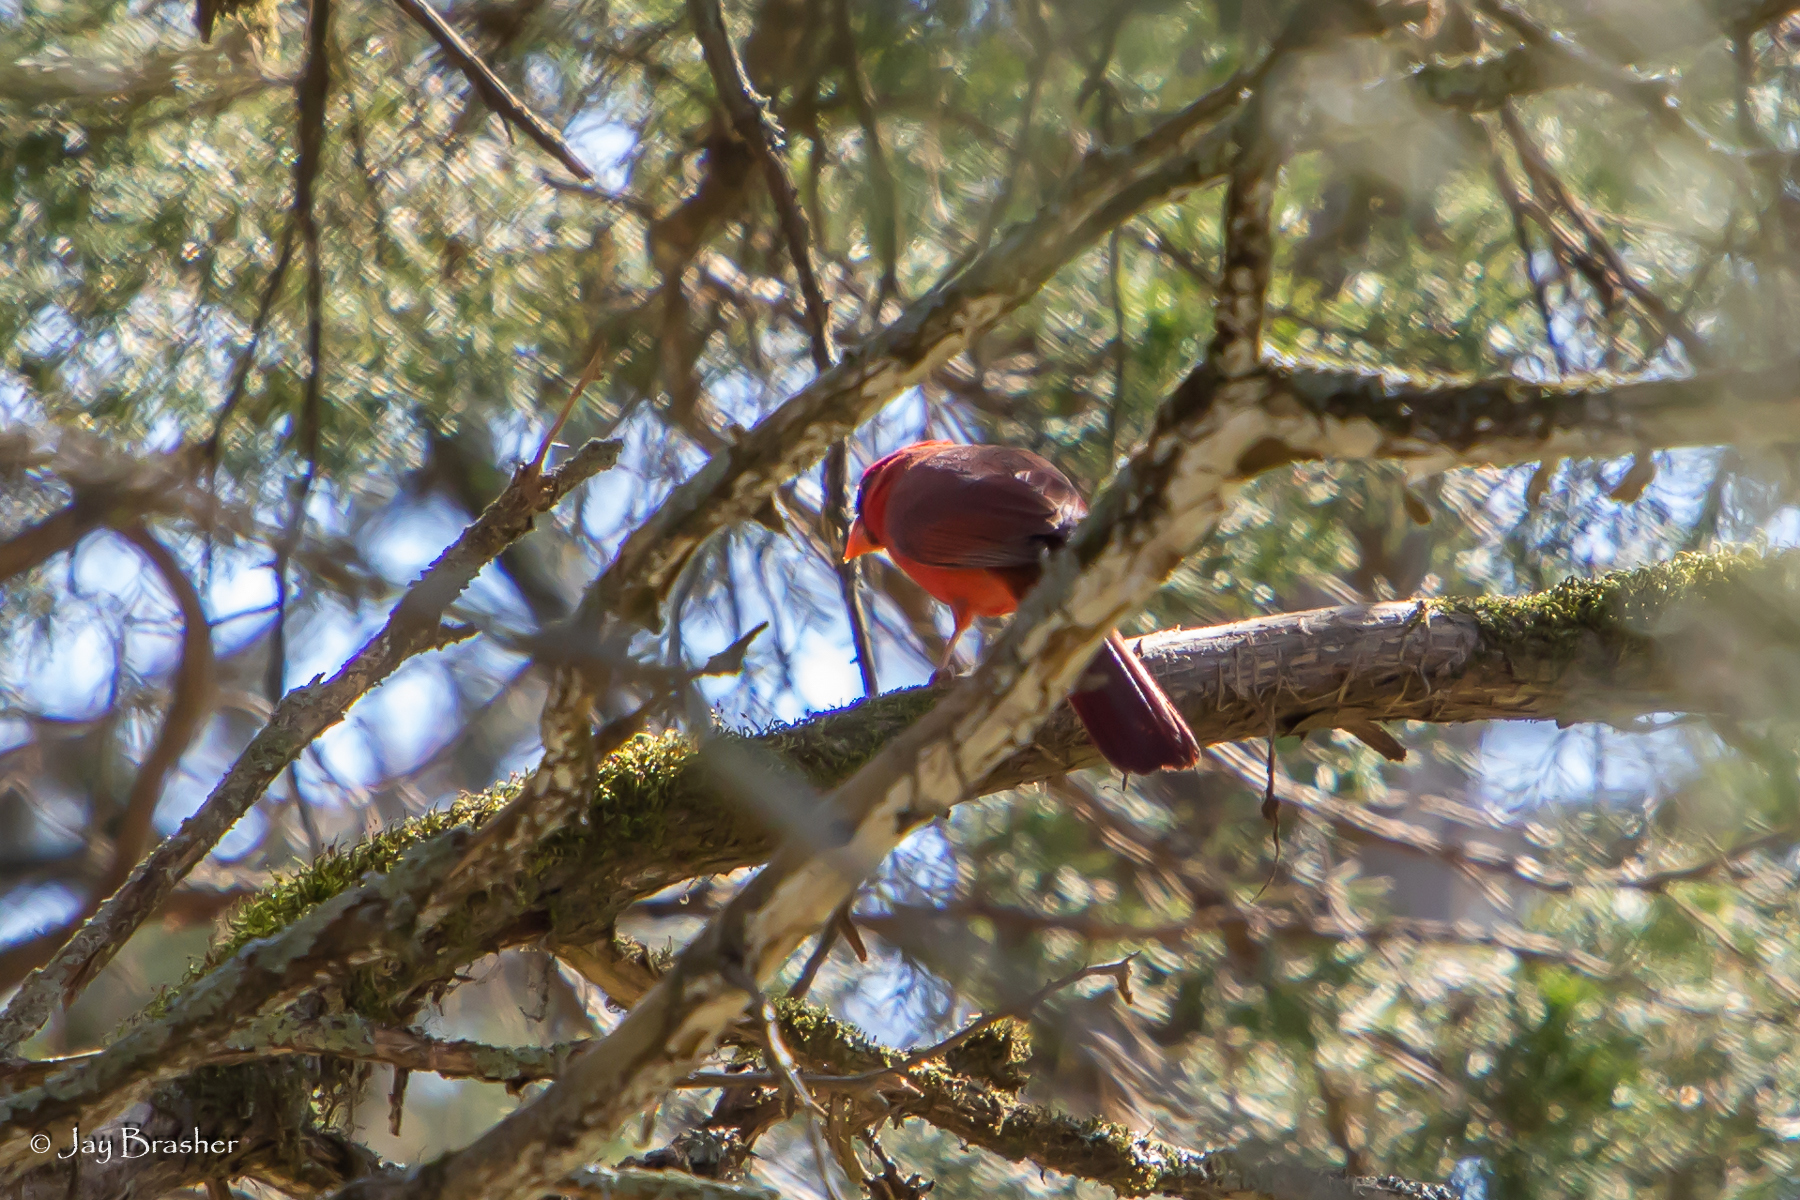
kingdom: Animalia
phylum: Chordata
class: Aves
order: Passeriformes
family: Cardinalidae
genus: Cardinalis
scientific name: Cardinalis cardinalis
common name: Northern cardinal
